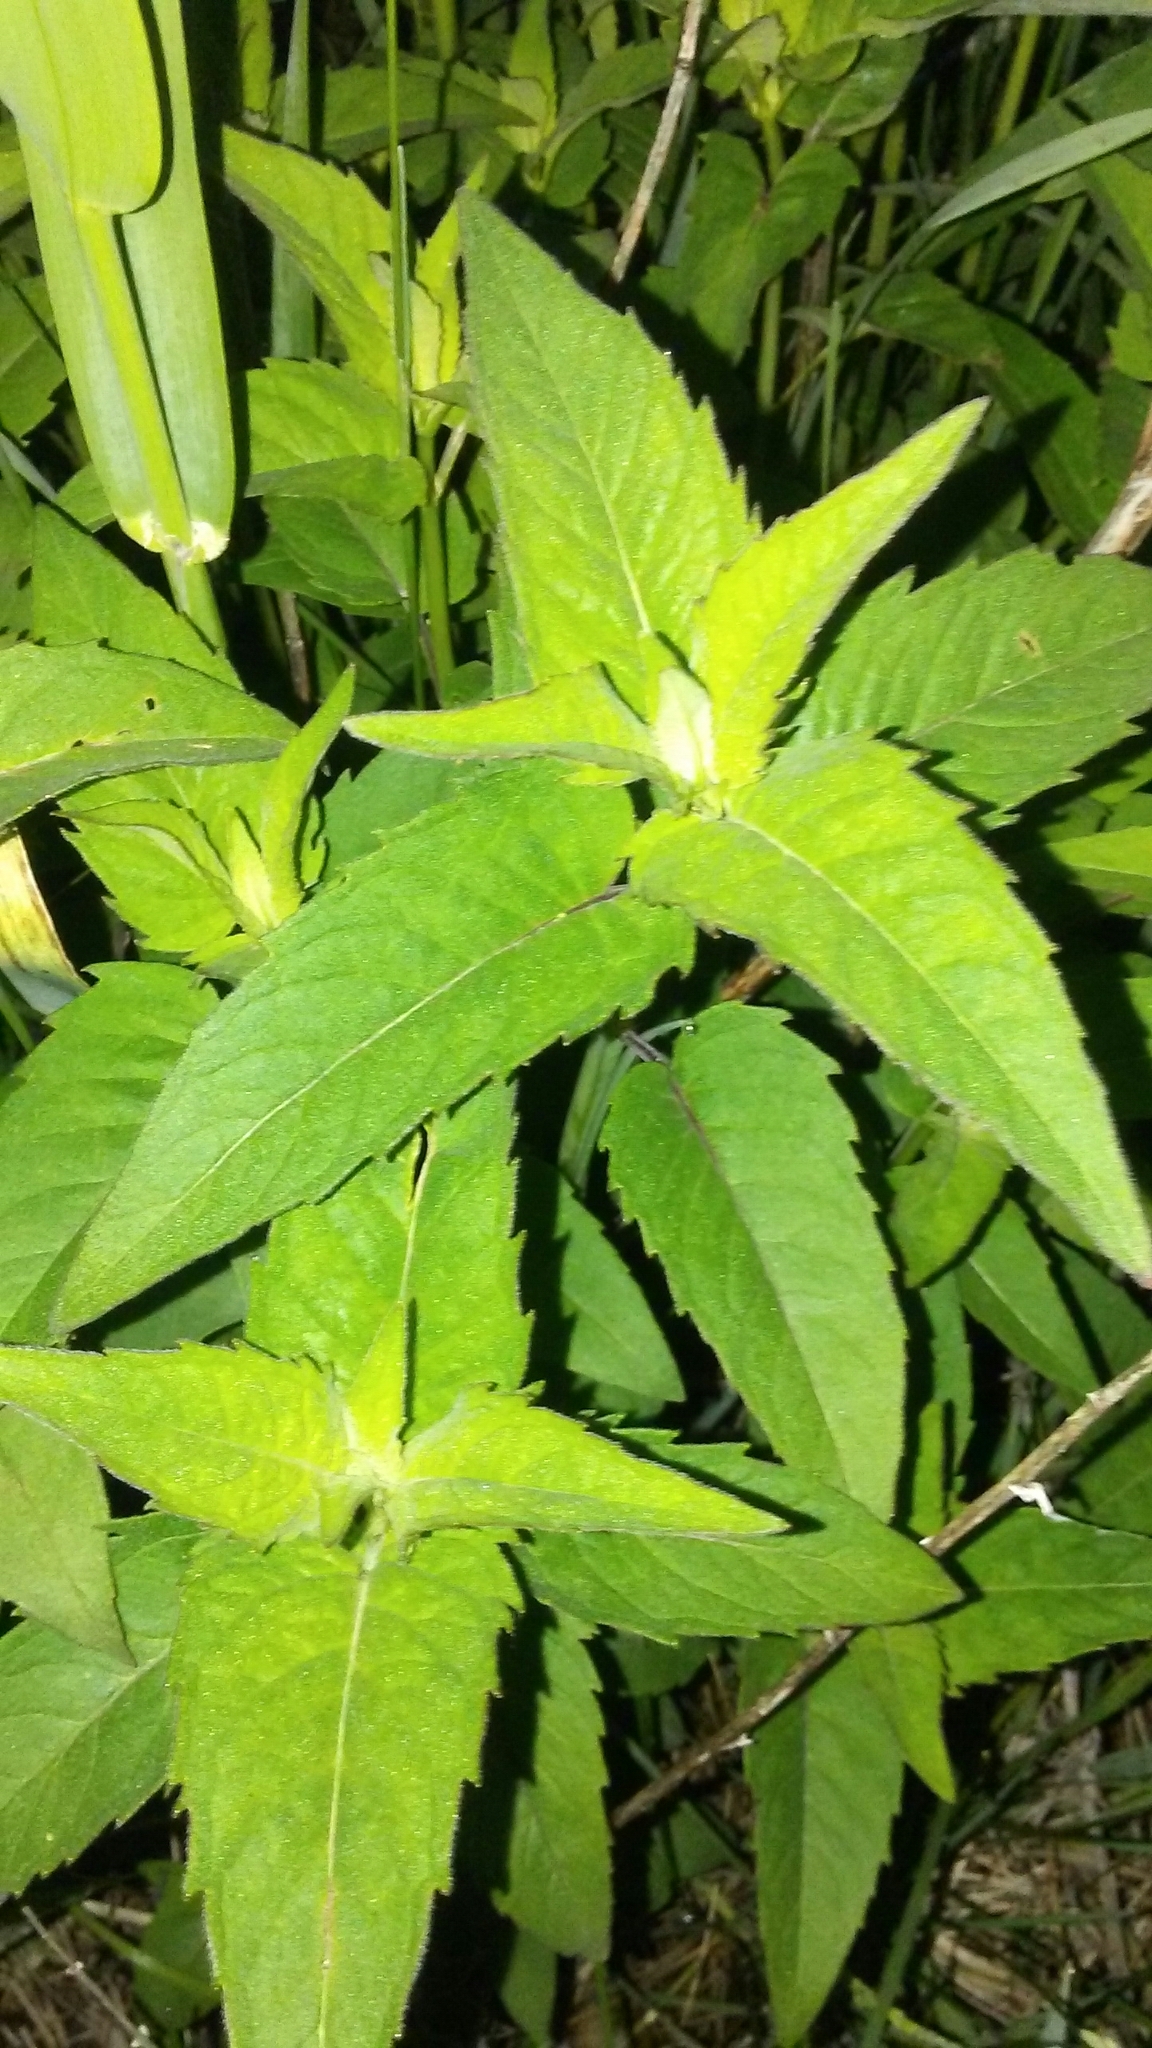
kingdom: Plantae
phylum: Tracheophyta
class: Magnoliopsida
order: Lamiales
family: Lamiaceae
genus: Monarda
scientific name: Monarda fistulosa
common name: Purple beebalm
